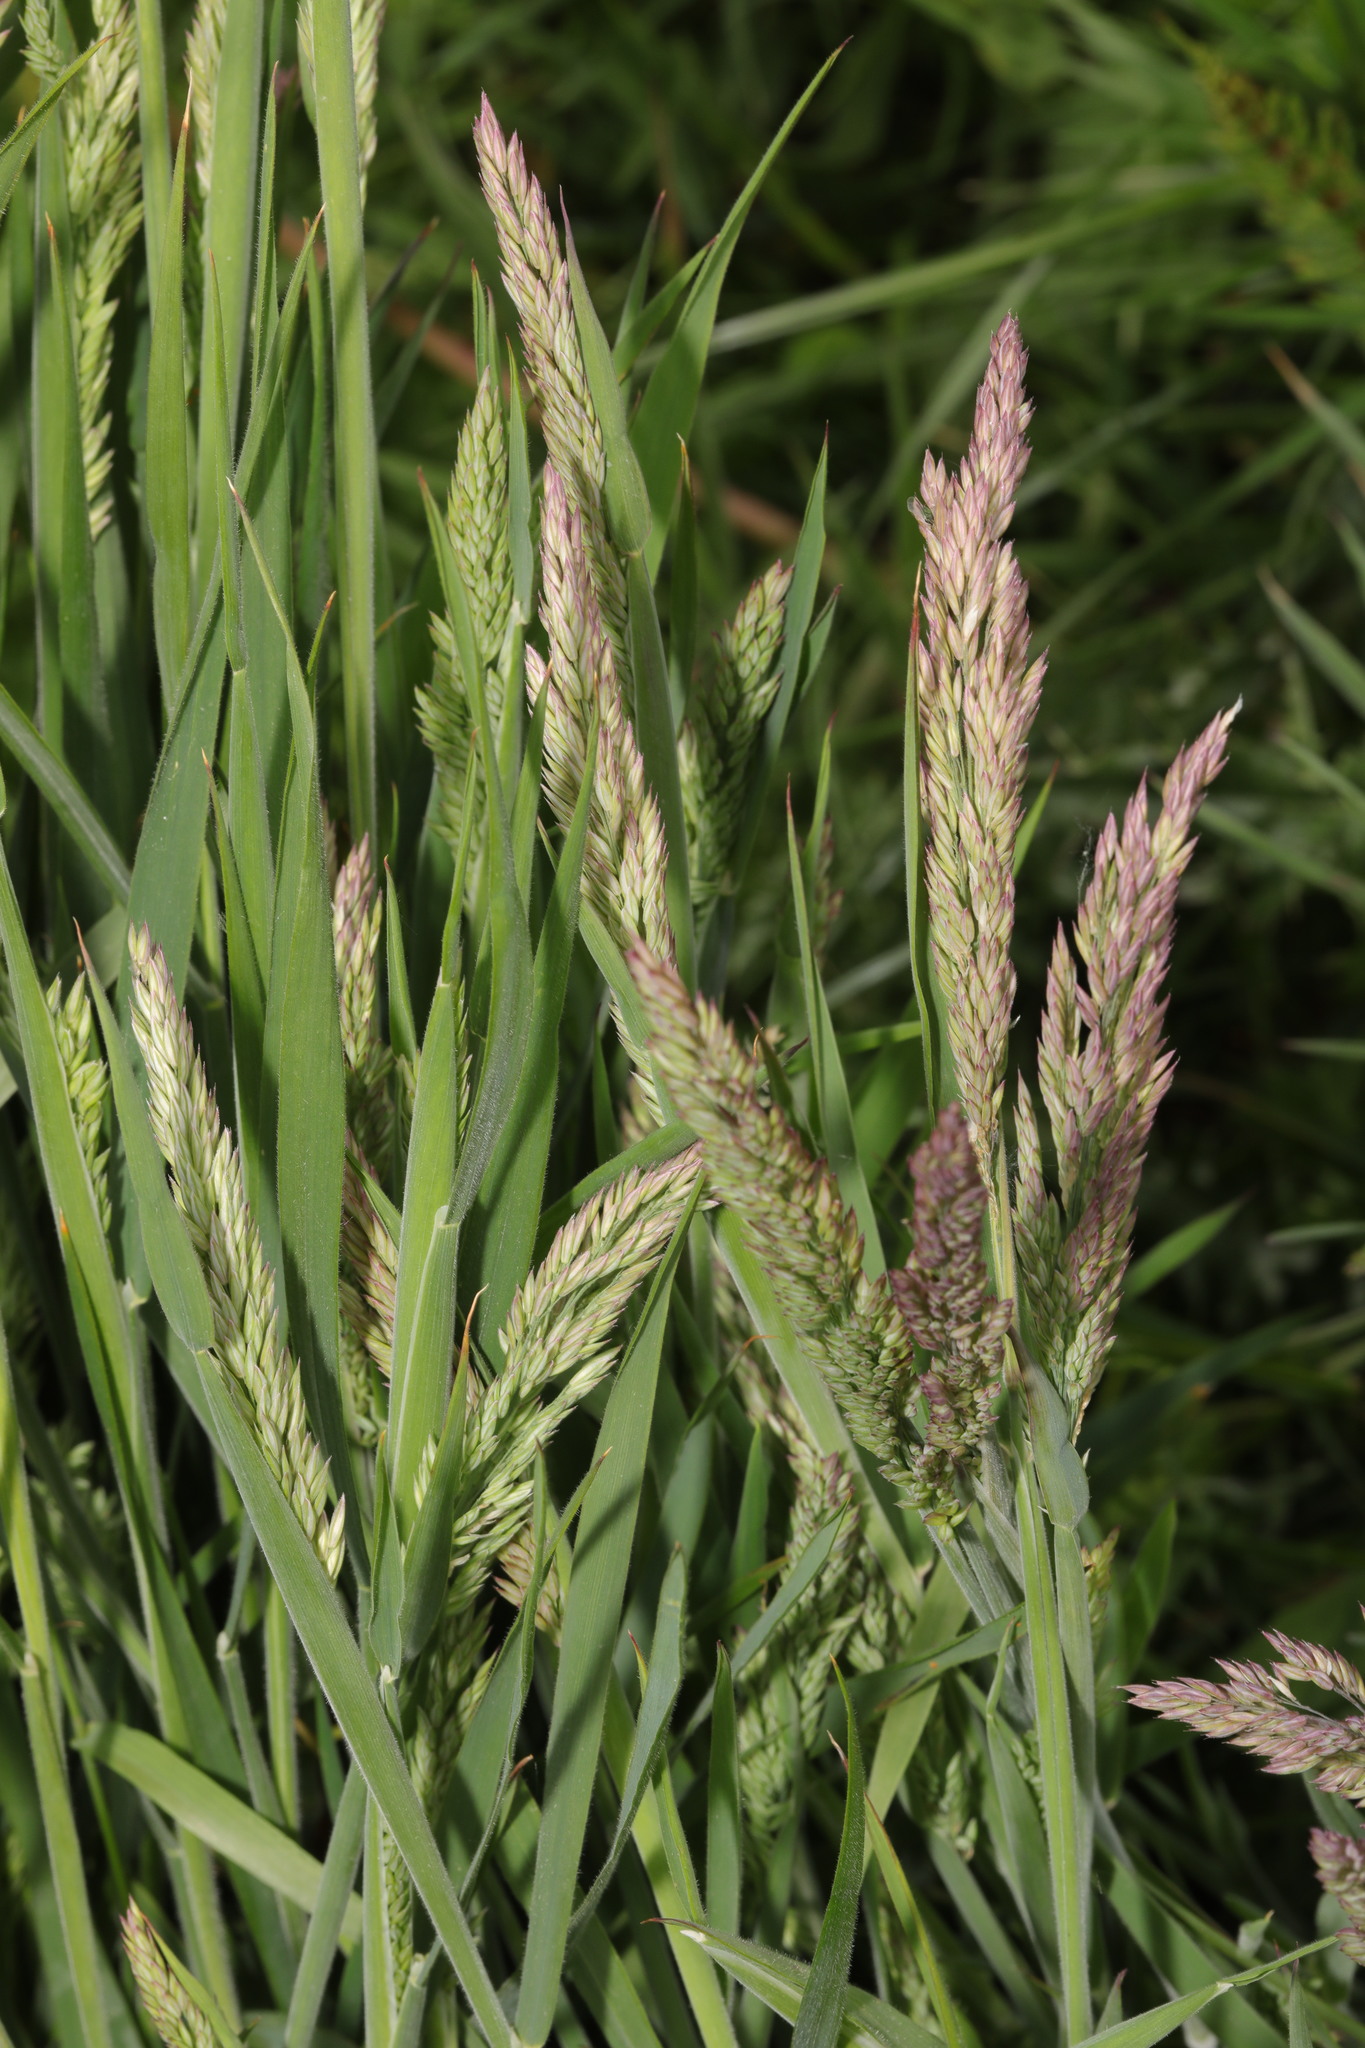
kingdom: Plantae
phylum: Tracheophyta
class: Liliopsida
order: Poales
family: Poaceae
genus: Holcus
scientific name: Holcus lanatus
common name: Yorkshire-fog
